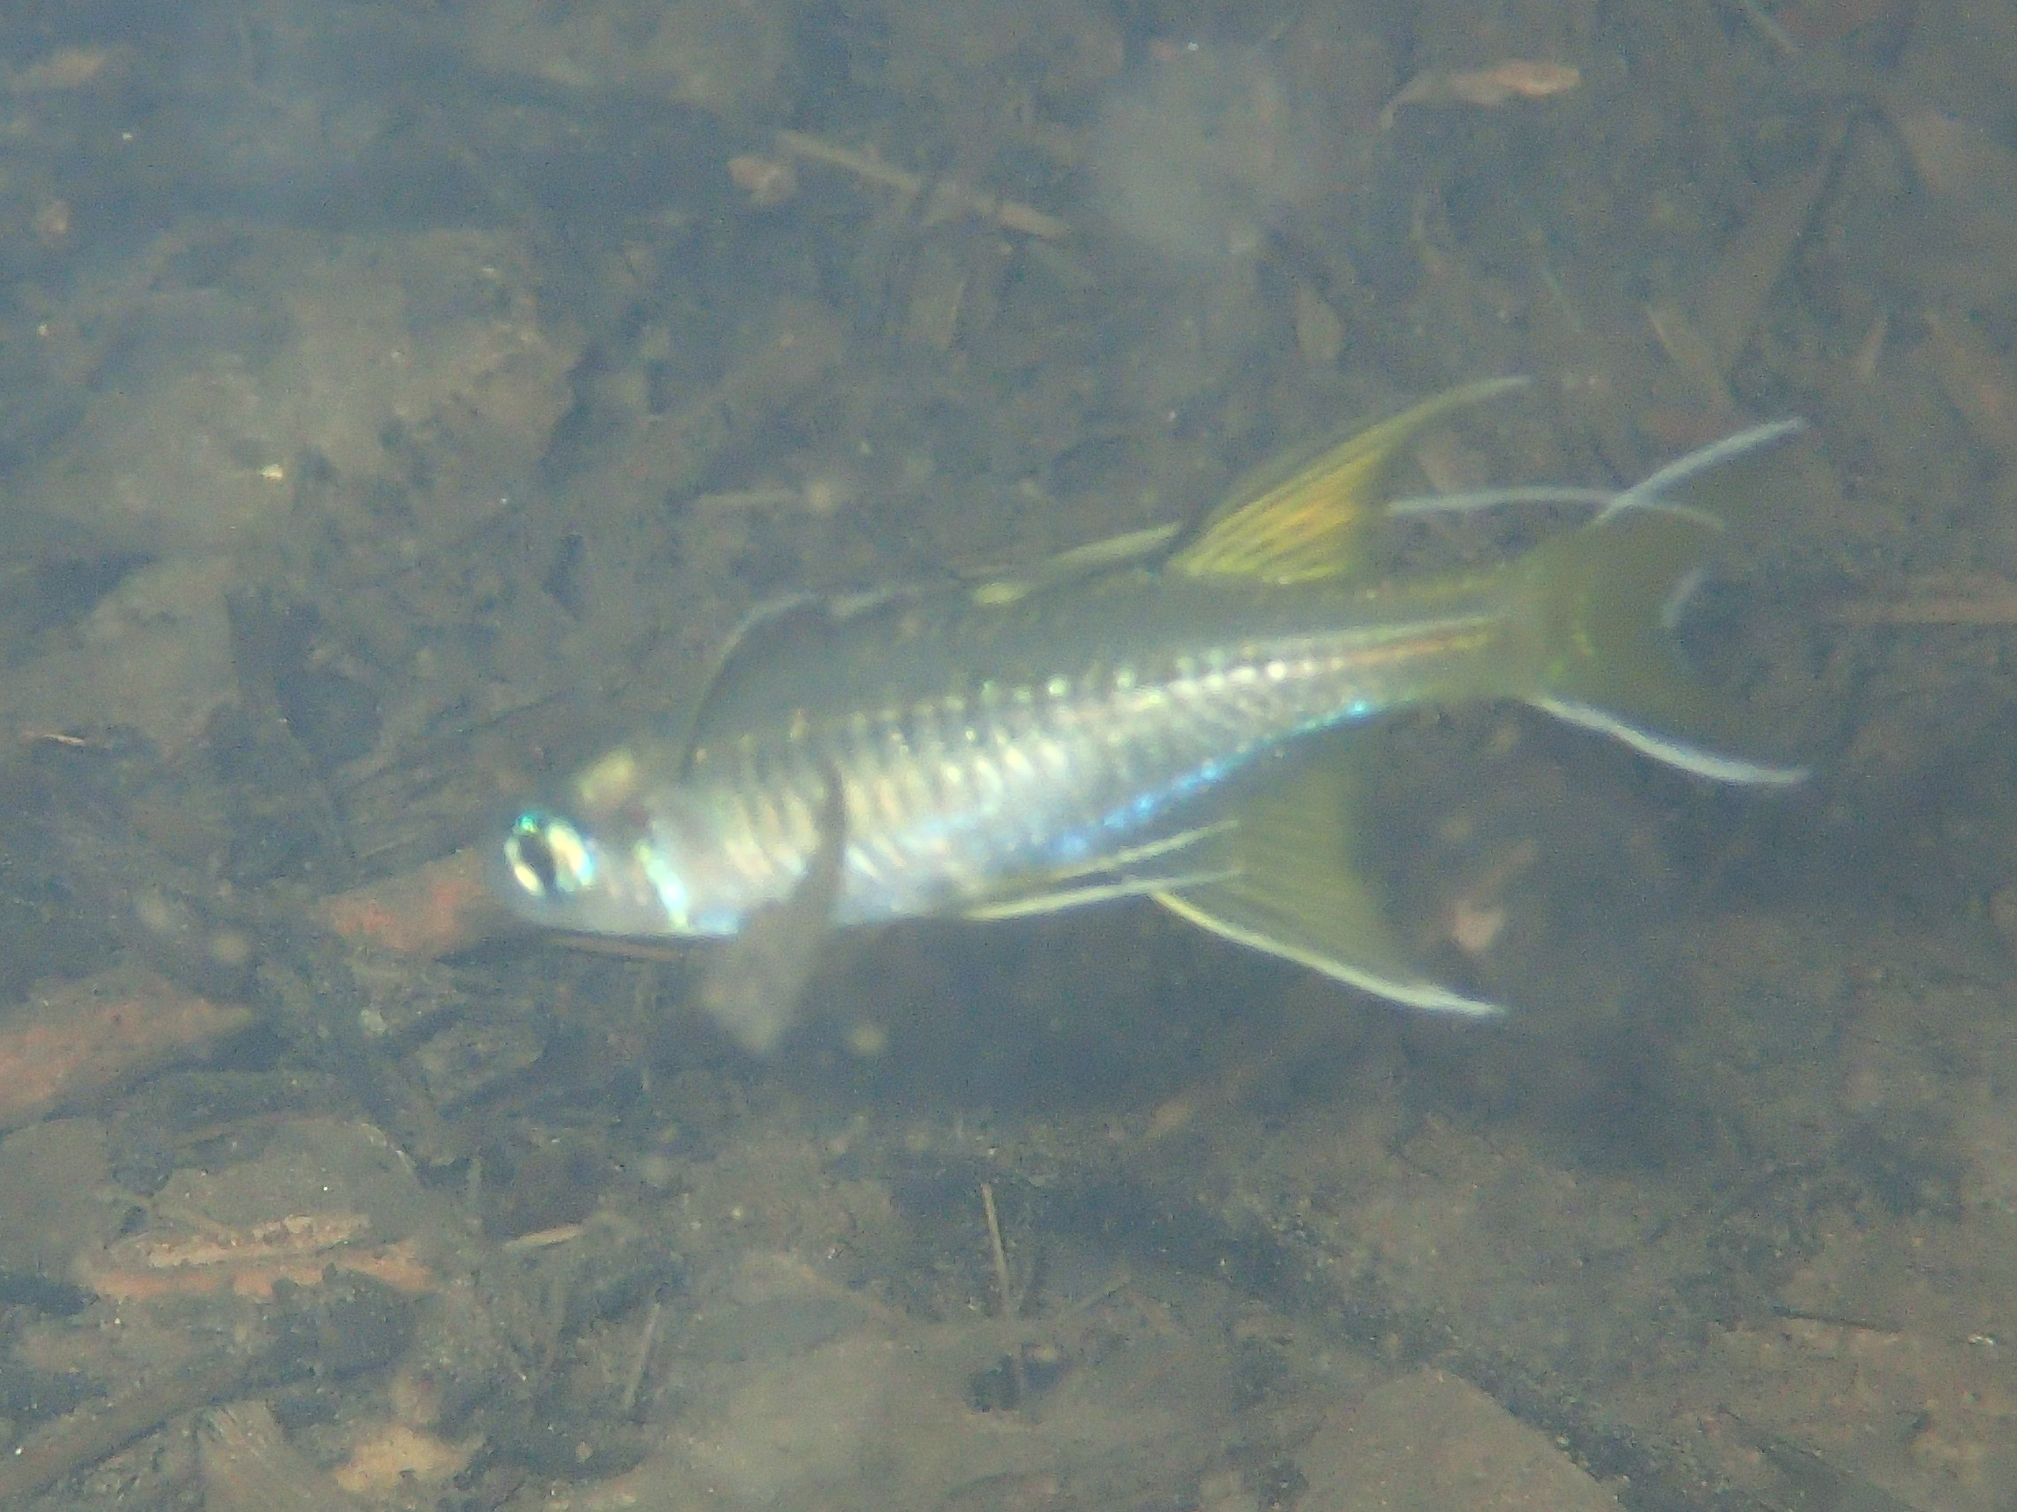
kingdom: Animalia
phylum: Chordata
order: Atheriniformes
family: Pseudomugilidae
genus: Pseudomugil
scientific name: Pseudomugil signifer
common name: Blue eye
